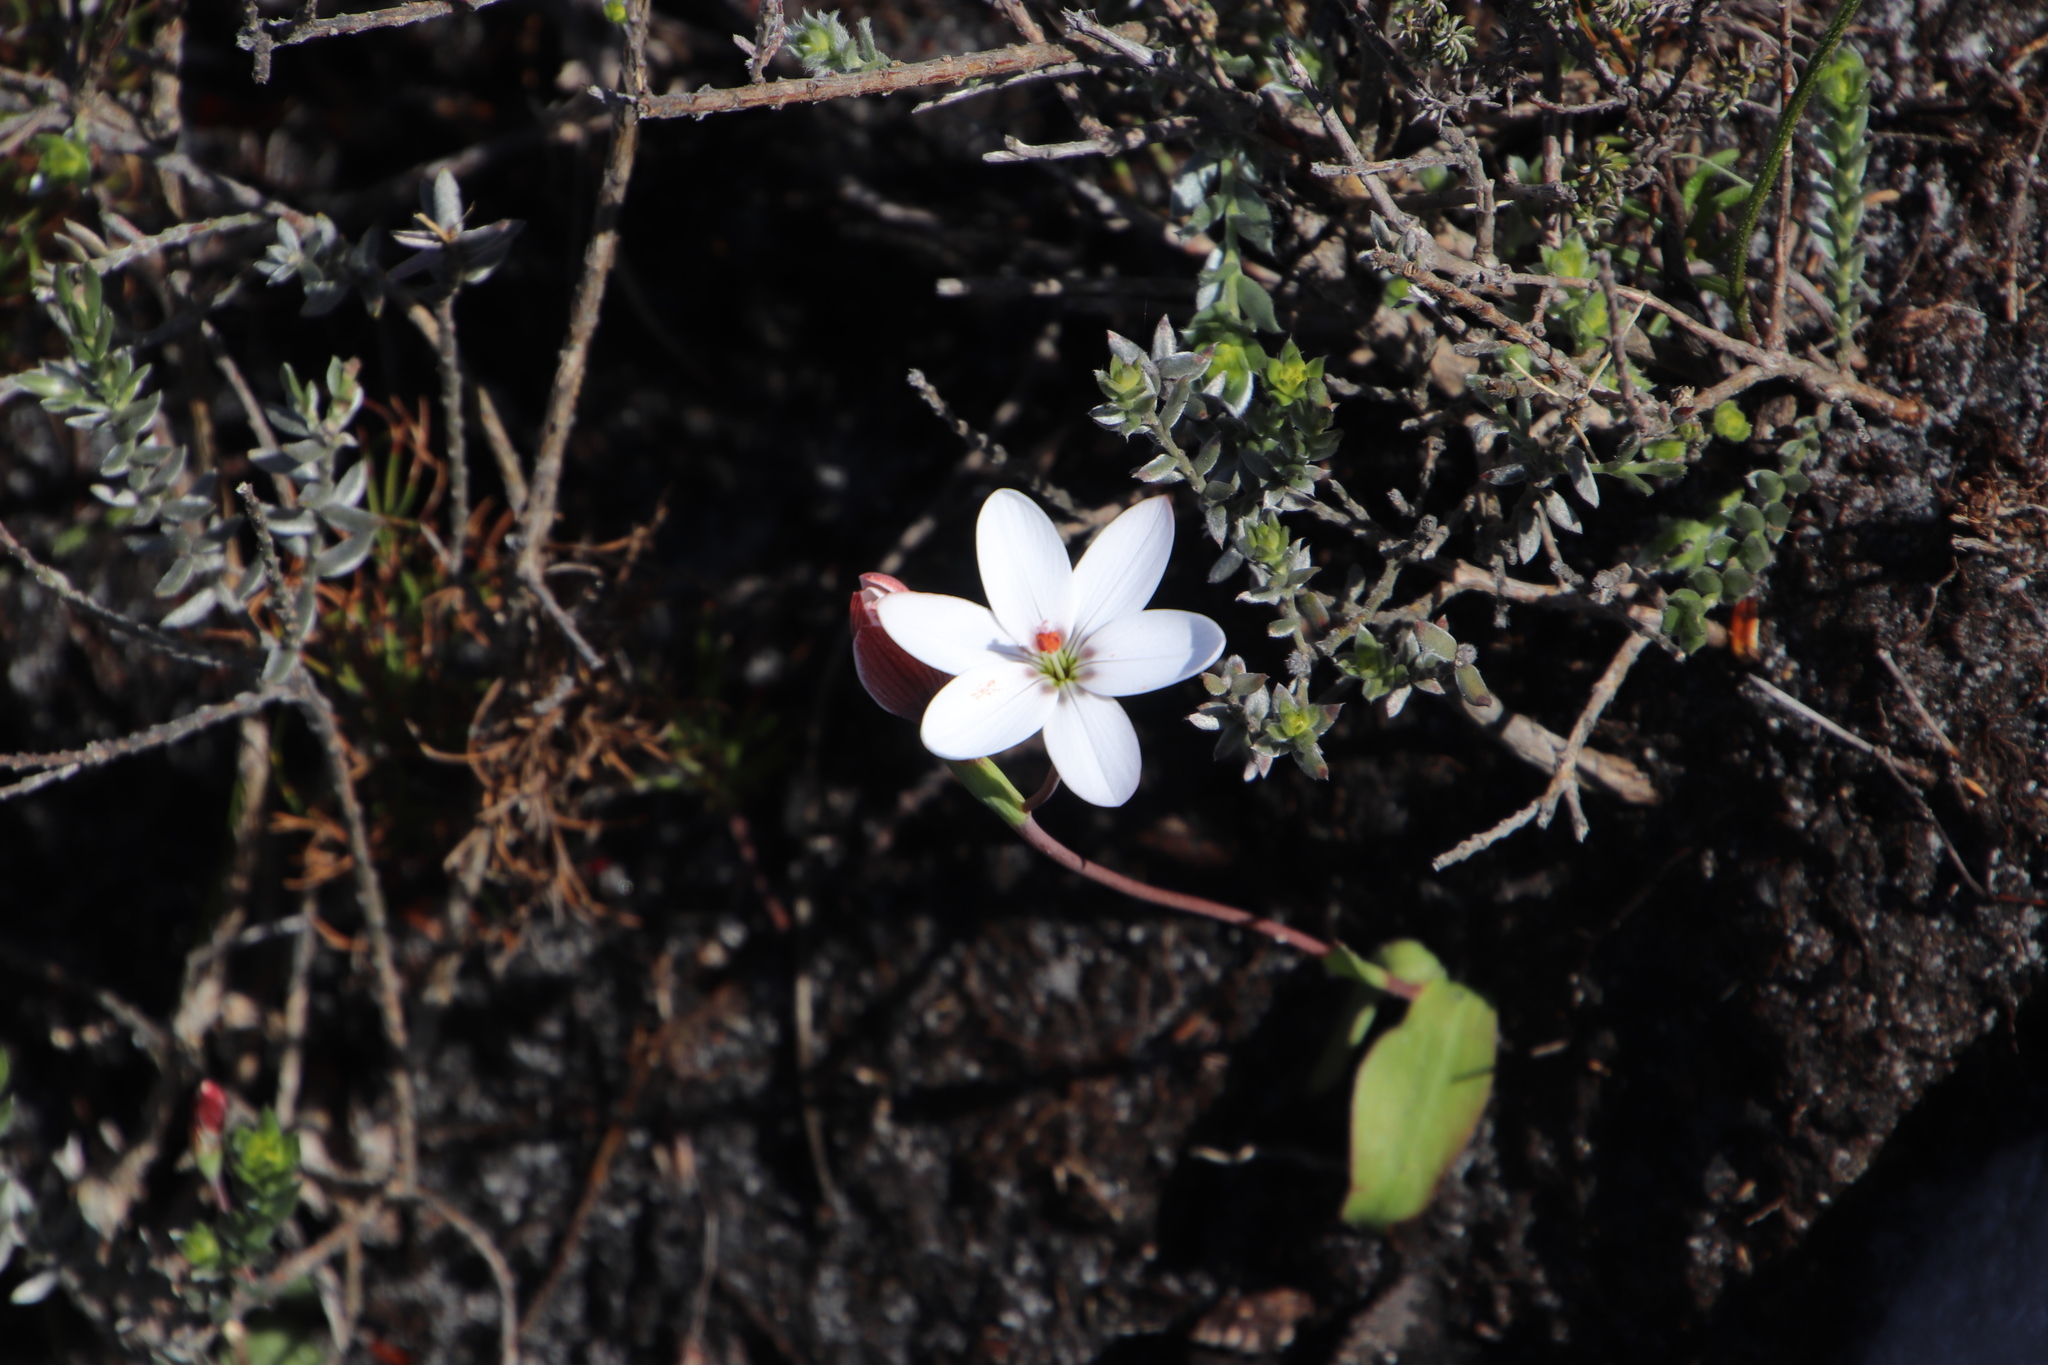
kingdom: Plantae
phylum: Tracheophyta
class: Liliopsida
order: Asparagales
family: Iridaceae
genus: Geissorhiza
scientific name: Geissorhiza ovata
